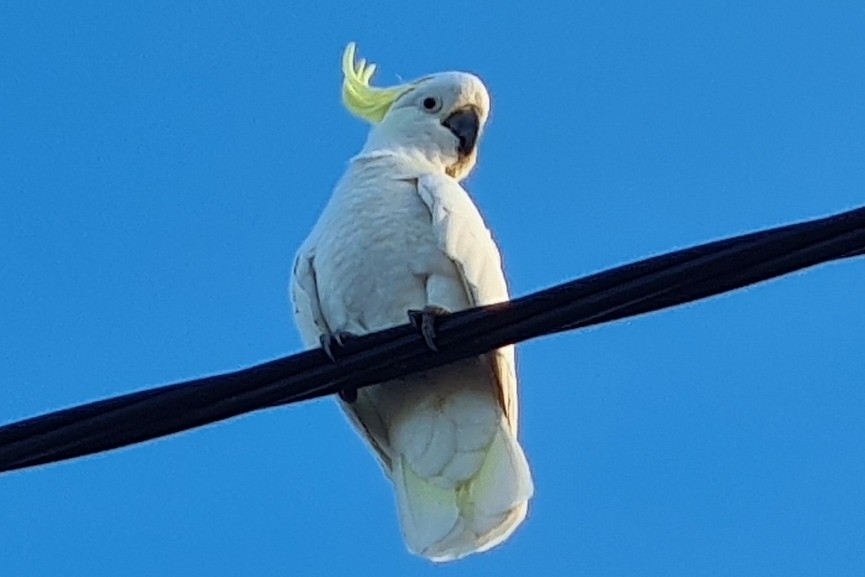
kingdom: Animalia
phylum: Chordata
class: Aves
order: Psittaciformes
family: Psittacidae
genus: Cacatua
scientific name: Cacatua galerita
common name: Sulphur-crested cockatoo
